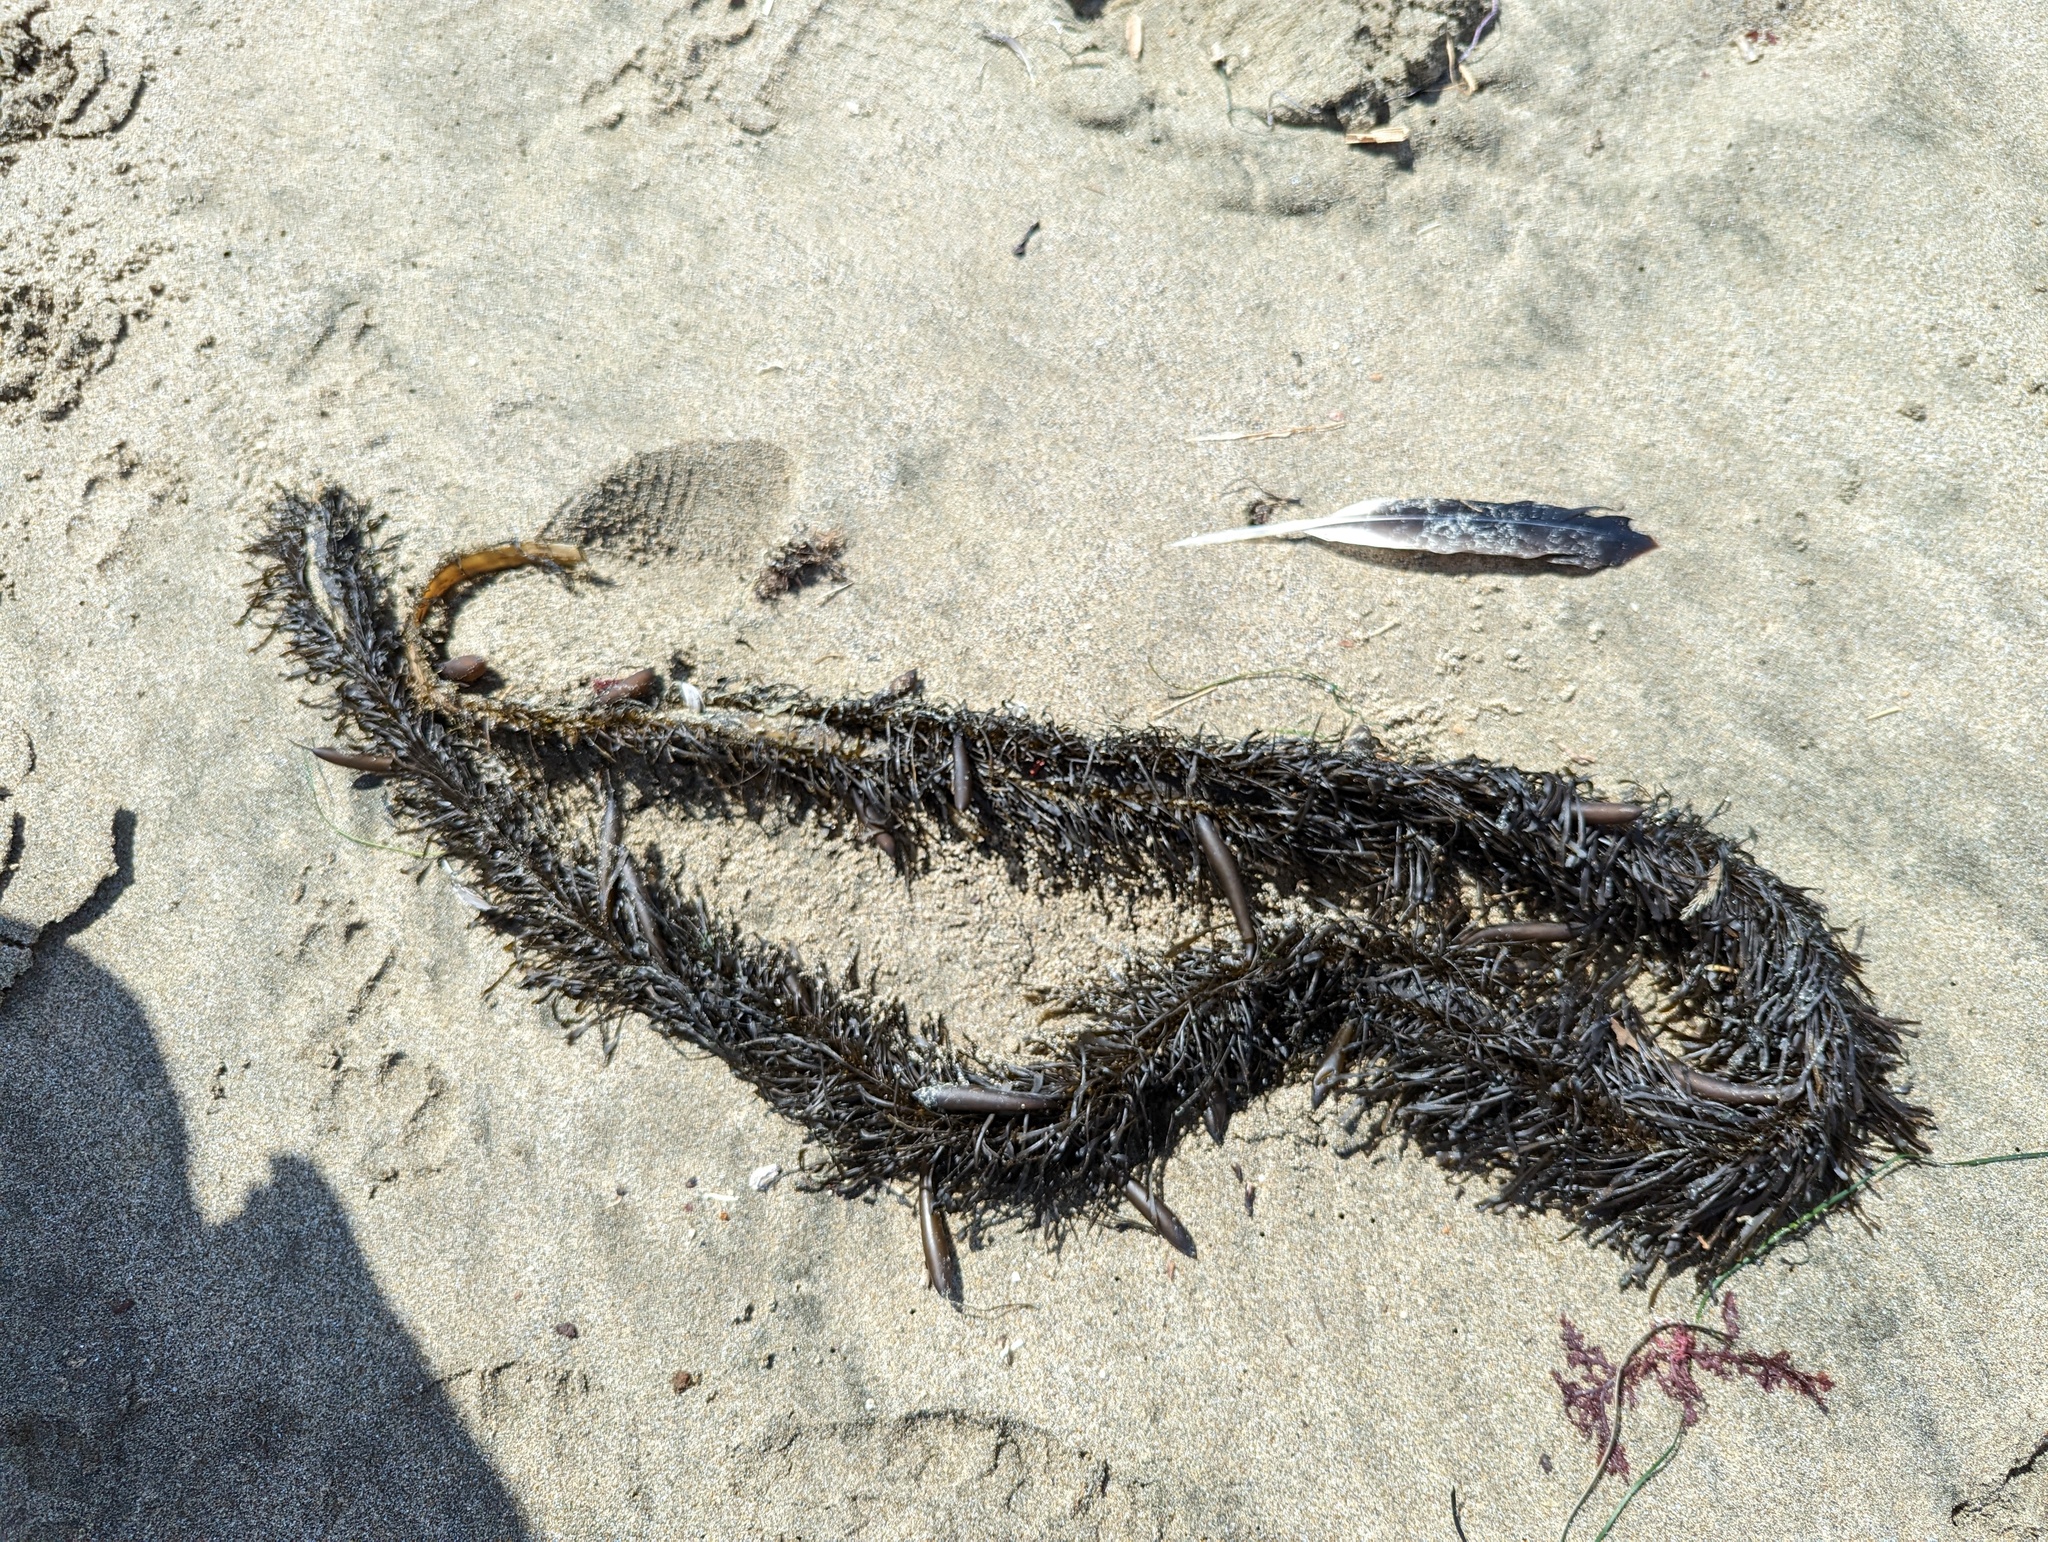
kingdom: Chromista
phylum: Ochrophyta
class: Phaeophyceae
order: Laminariales
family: Lessoniaceae
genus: Egregia
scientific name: Egregia menziesii
